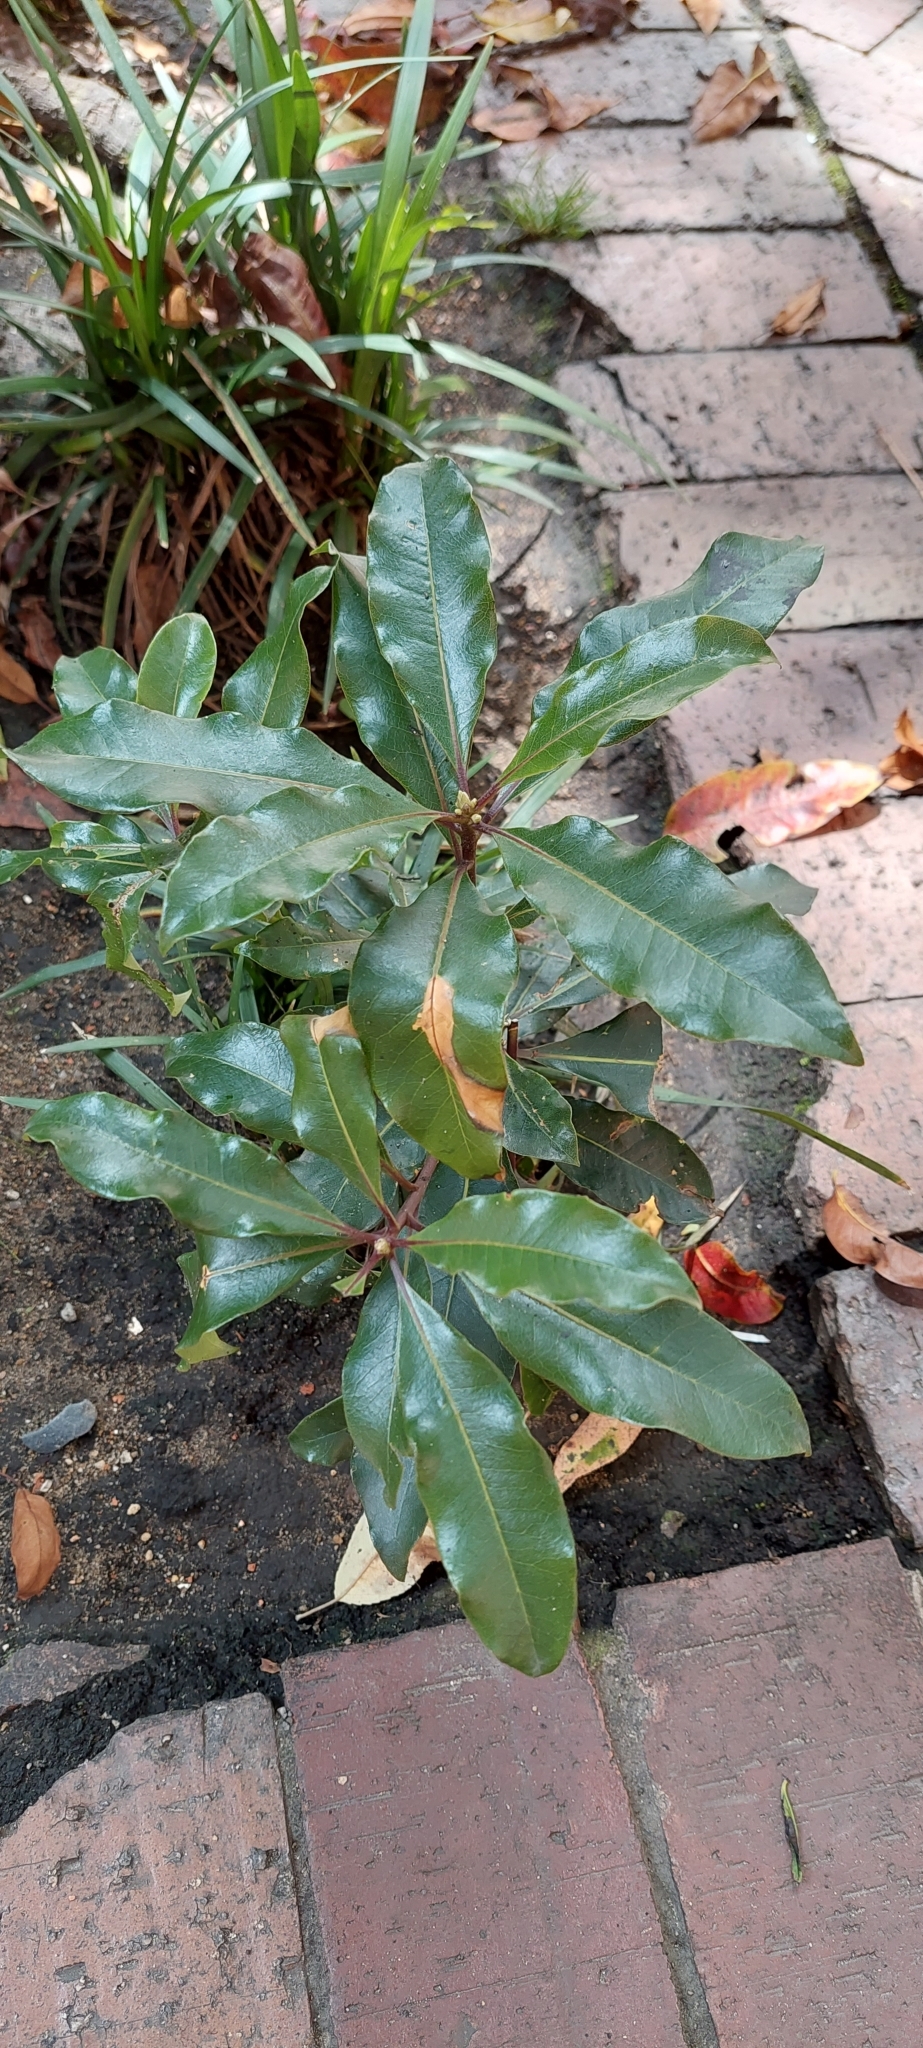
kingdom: Plantae
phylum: Tracheophyta
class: Magnoliopsida
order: Apiales
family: Pittosporaceae
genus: Pittosporum
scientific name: Pittosporum undulatum
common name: Australian cheesewood
